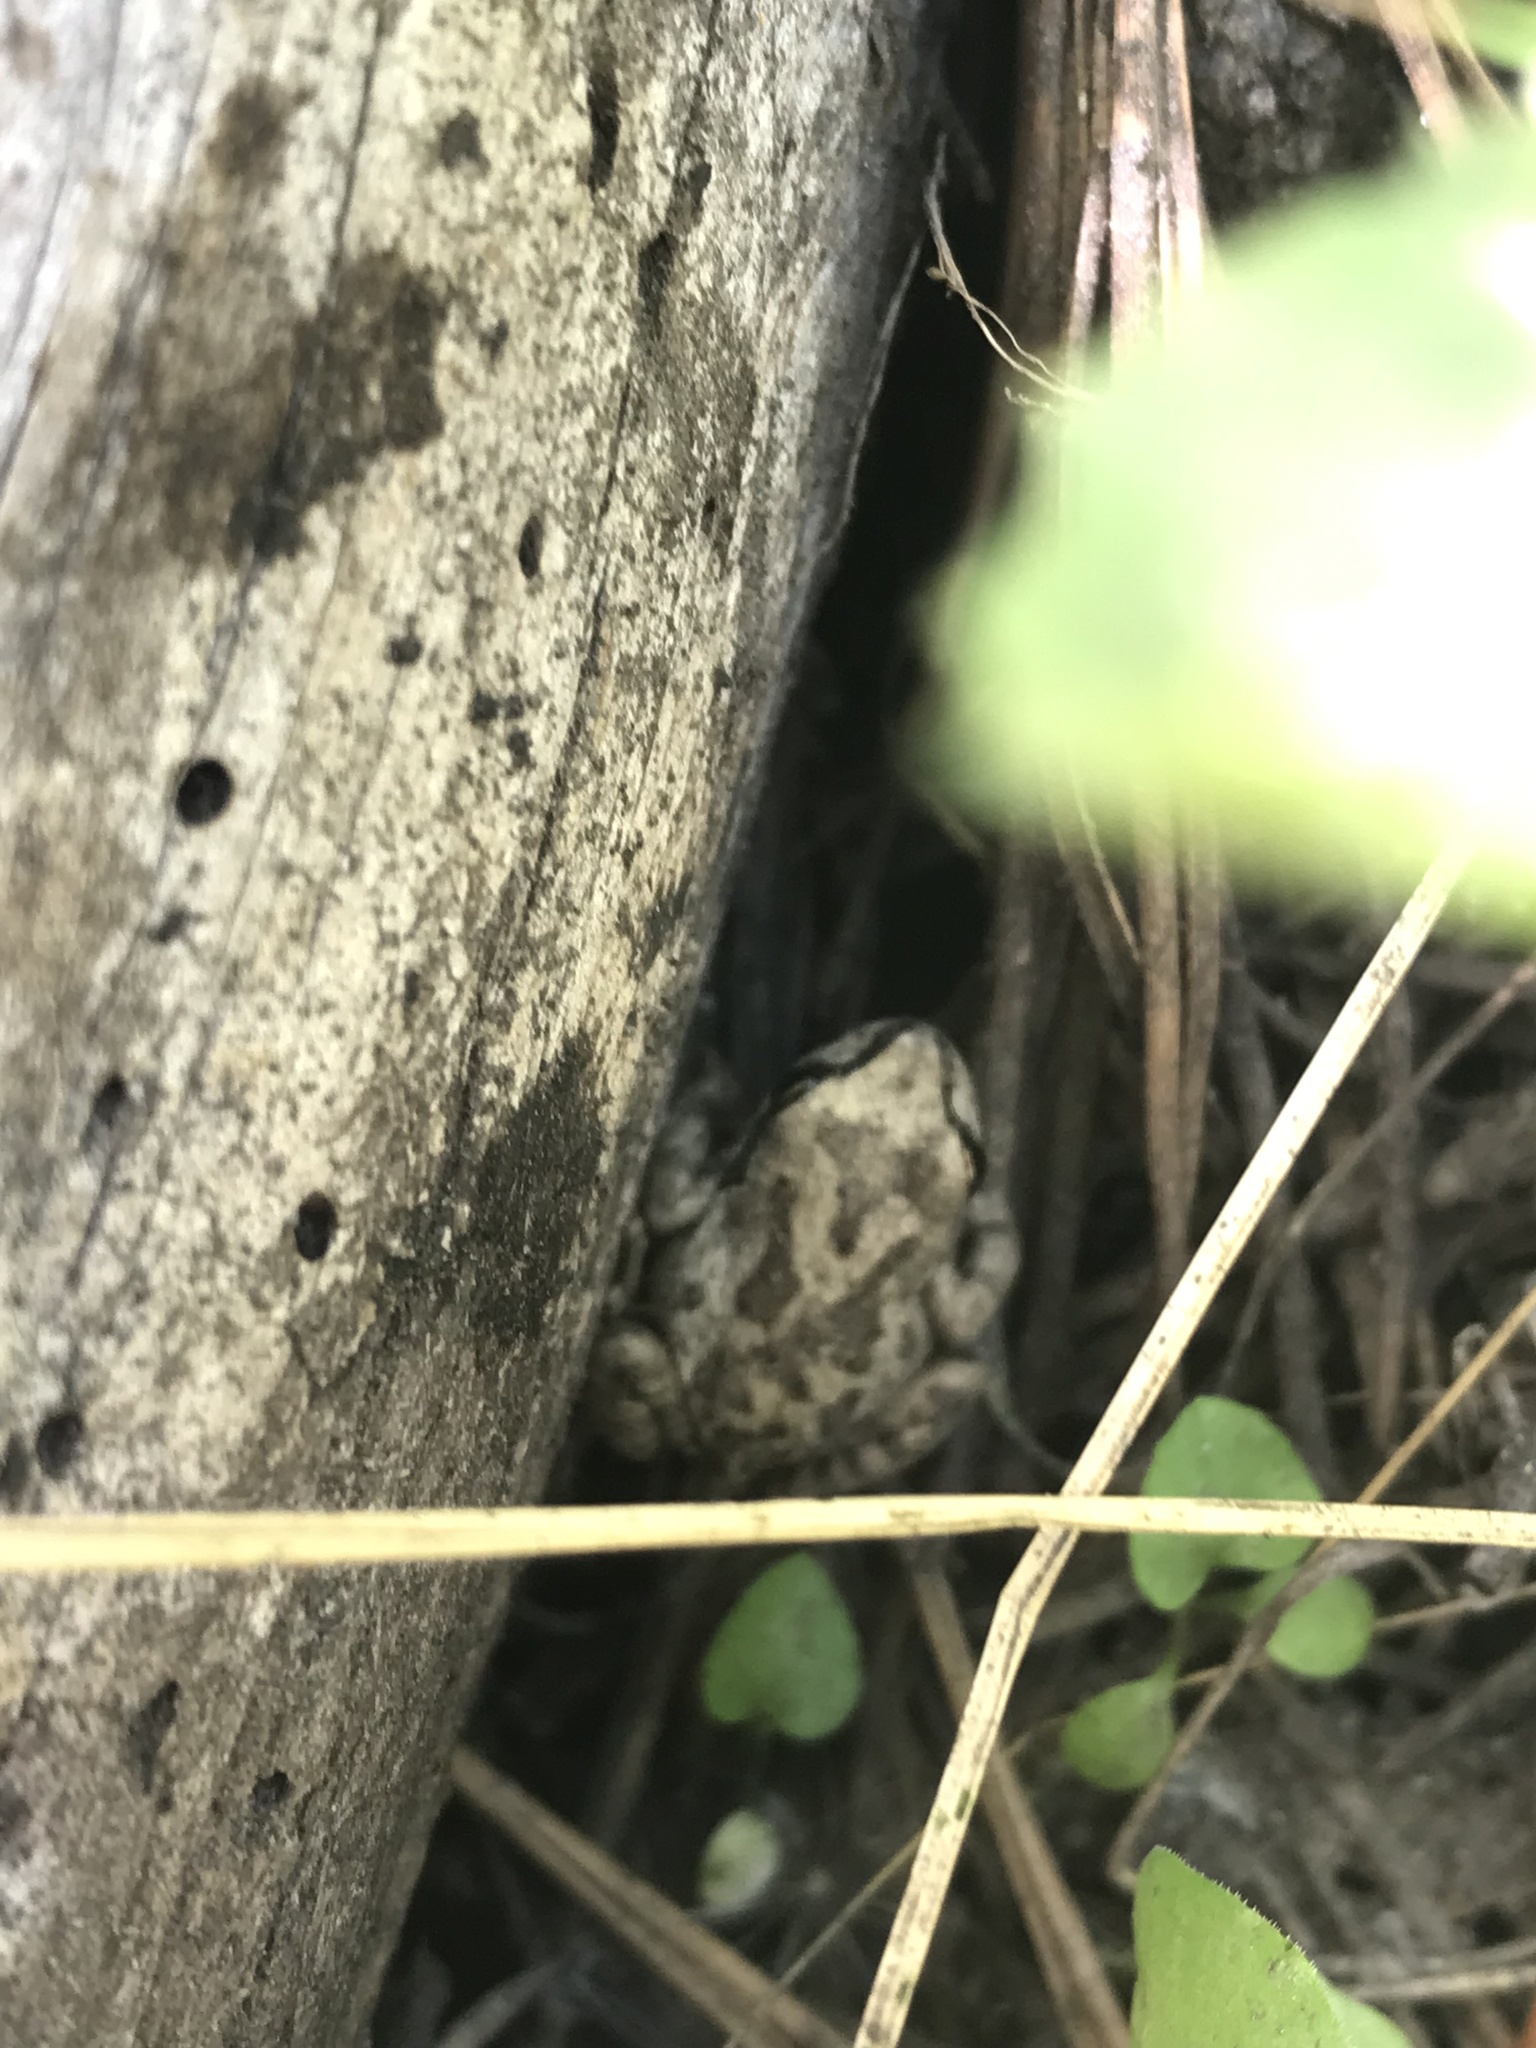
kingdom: Animalia
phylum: Chordata
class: Amphibia
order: Anura
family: Hylidae
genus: Pseudacris
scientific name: Pseudacris regilla
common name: Pacific chorus frog
